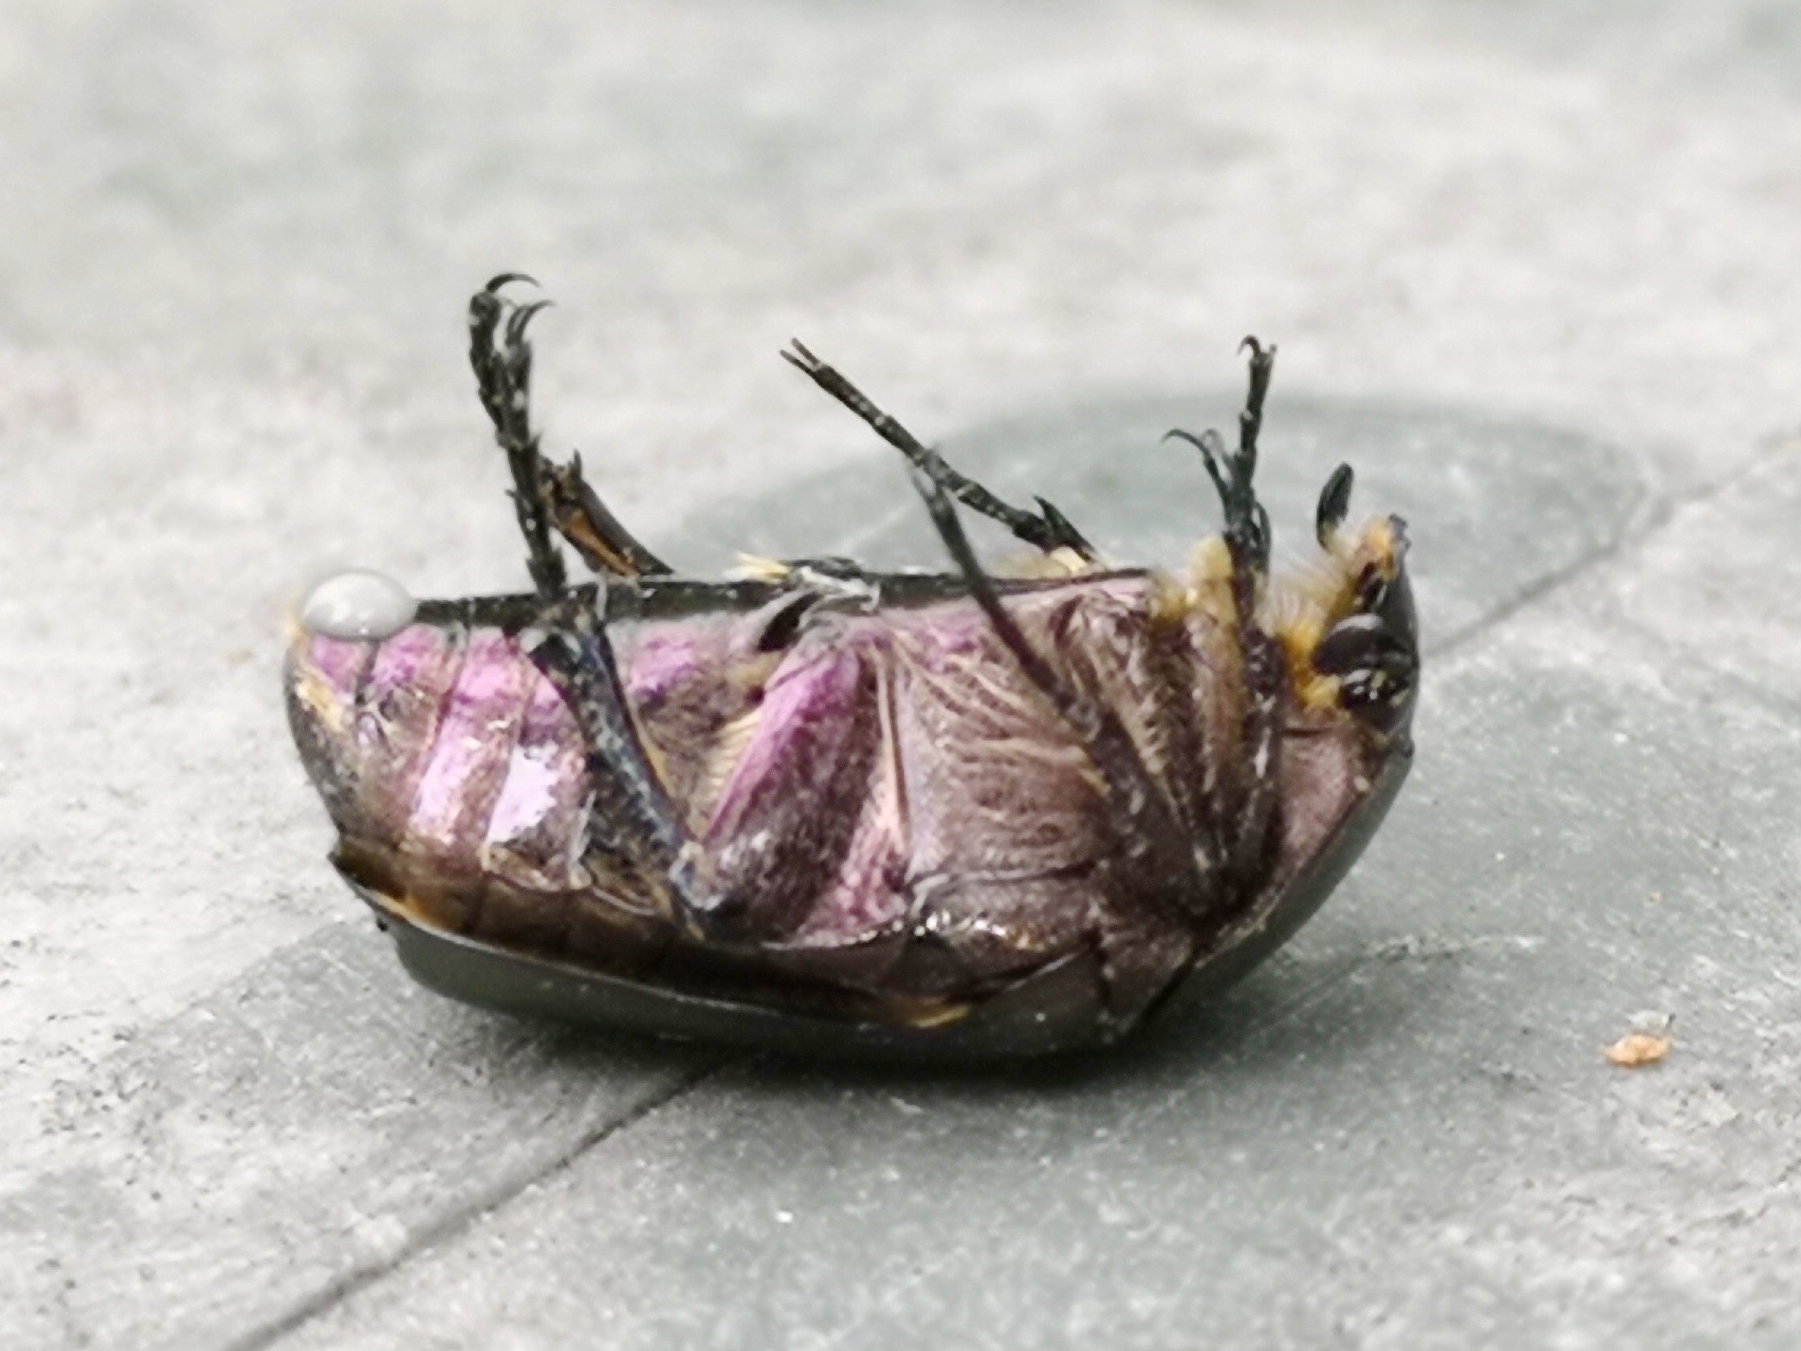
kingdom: Animalia
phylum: Arthropoda
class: Insecta
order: Coleoptera
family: Scarabaeidae
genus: Protaetia
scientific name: Protaetia cuprea
